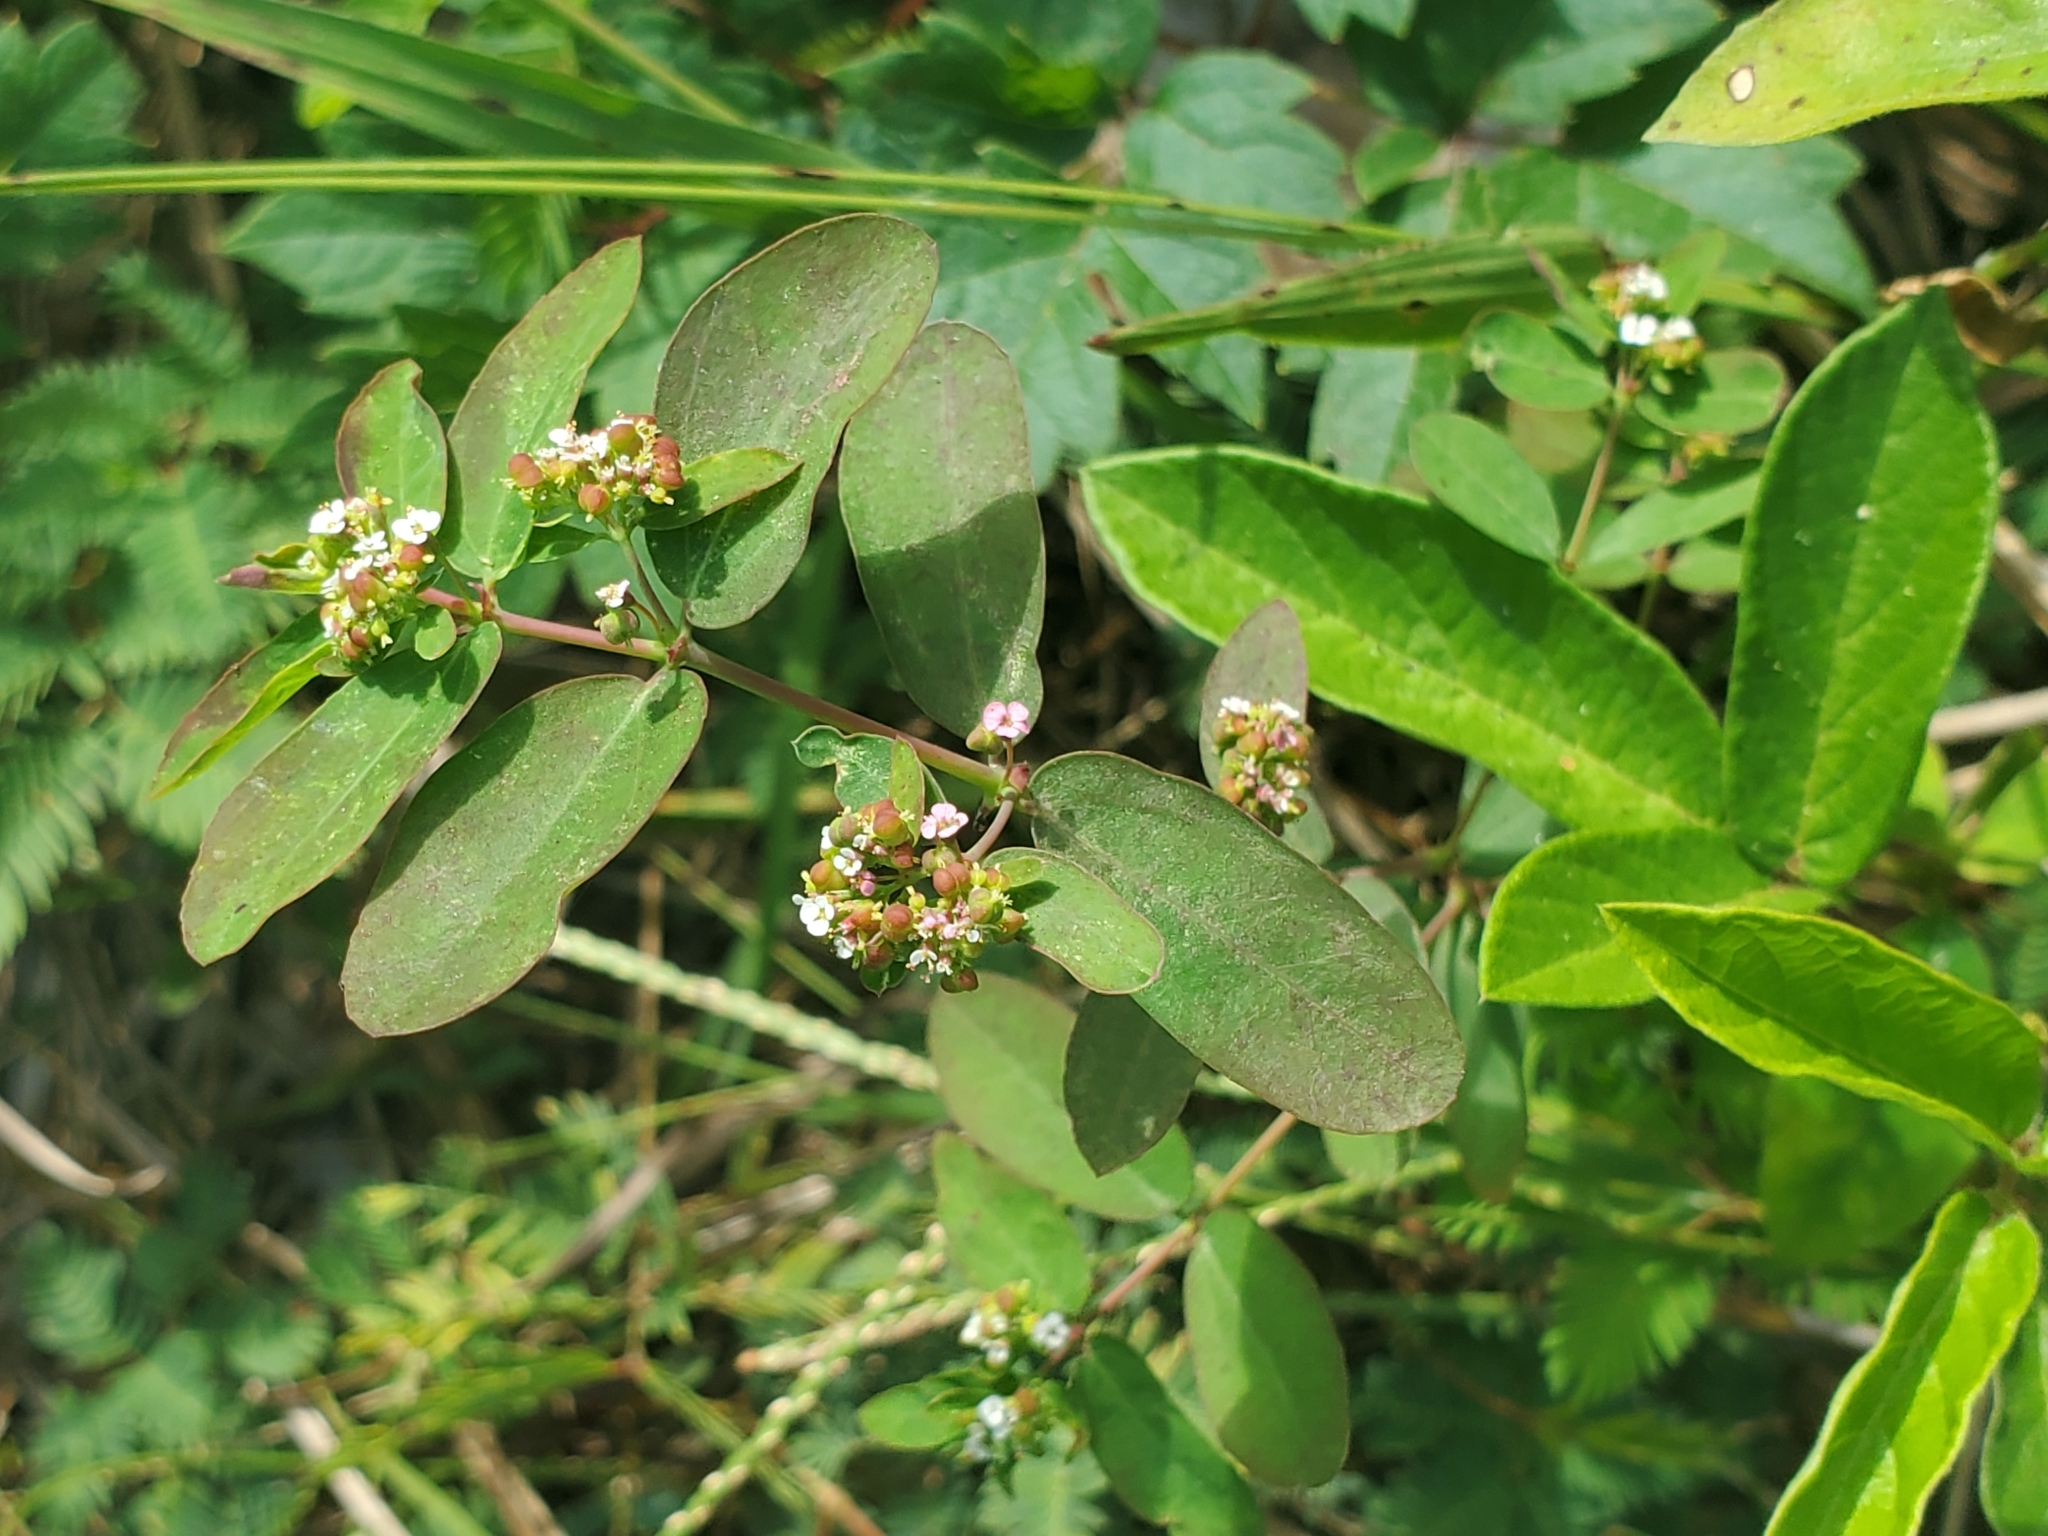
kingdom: Plantae
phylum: Tracheophyta
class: Magnoliopsida
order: Malpighiales
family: Euphorbiaceae
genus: Euphorbia
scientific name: Euphorbia hypericifolia
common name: Graceful sandmat
